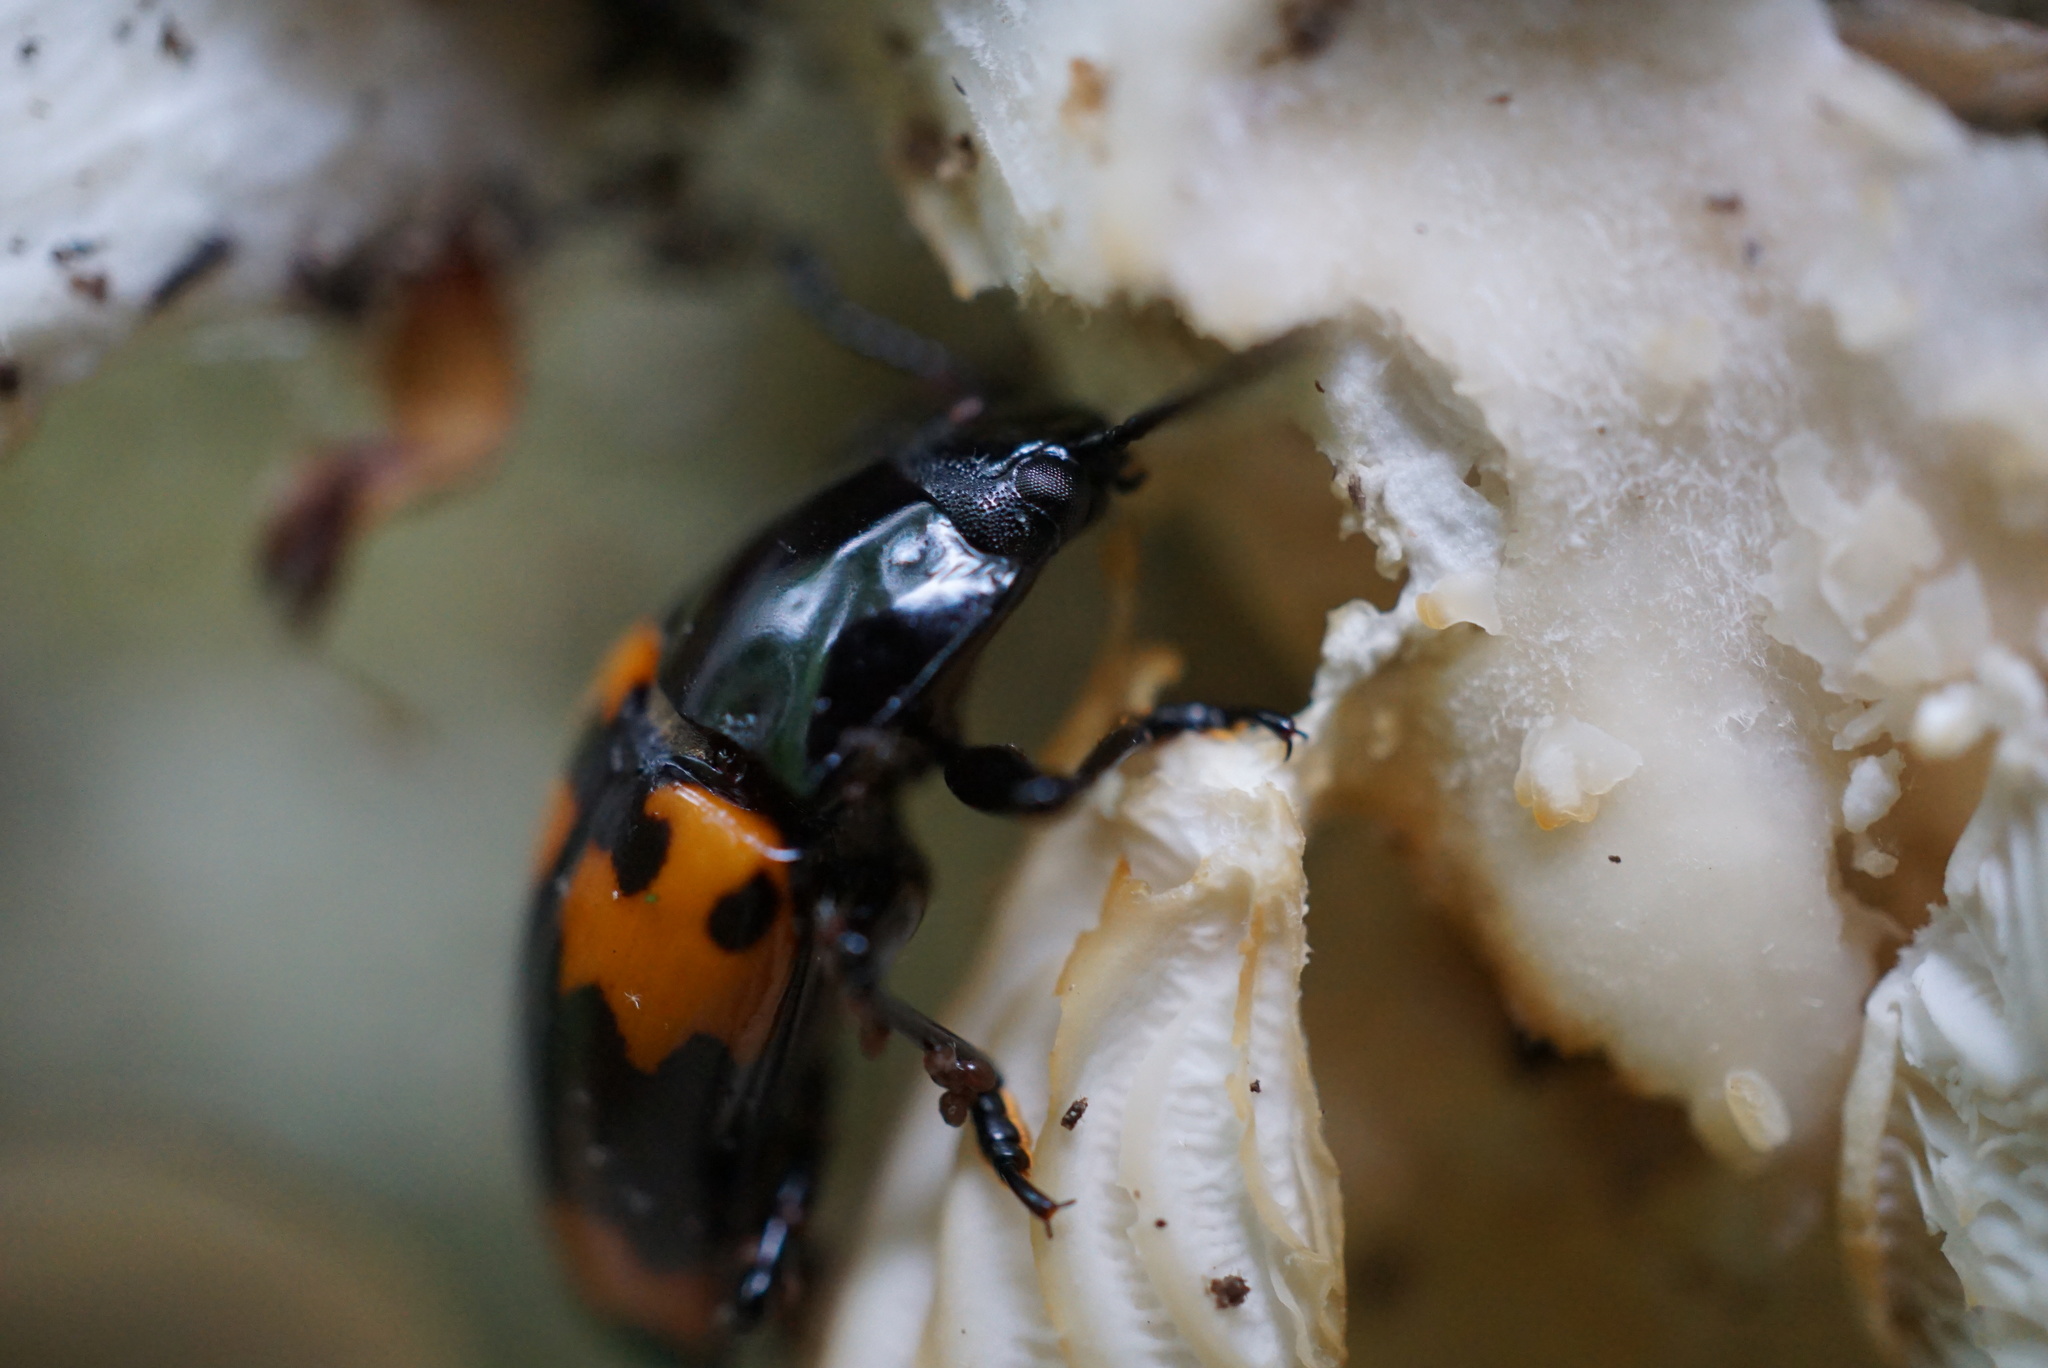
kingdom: Animalia
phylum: Arthropoda
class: Insecta
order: Coleoptera
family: Erotylidae
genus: Megalodacne
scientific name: Megalodacne heros
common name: Pleasing fungus beetle
